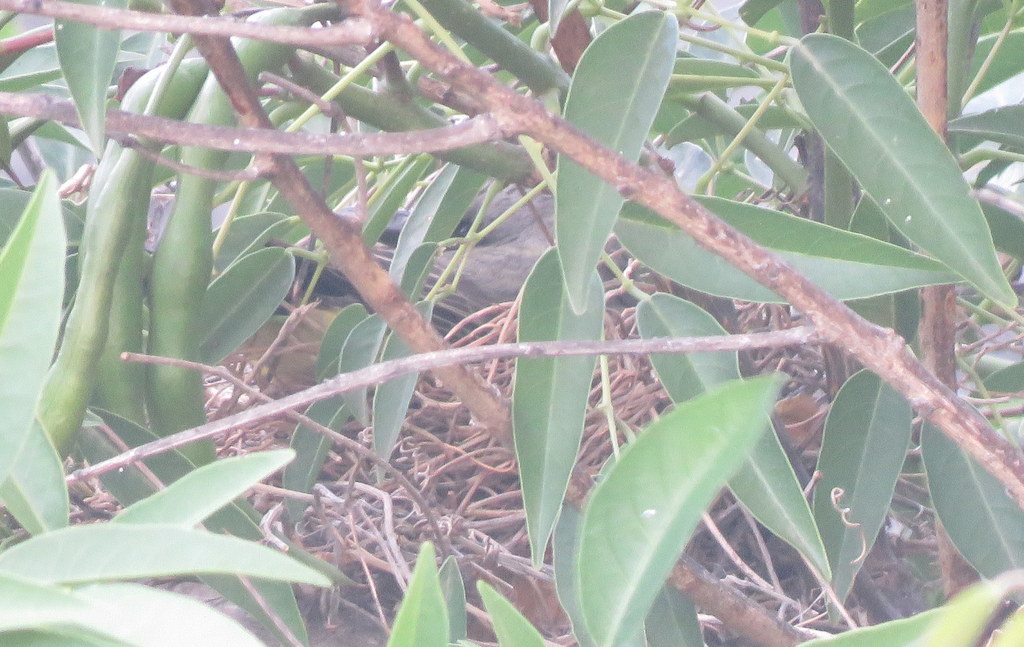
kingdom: Animalia
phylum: Chordata
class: Aves
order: Passeriformes
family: Tyrannidae
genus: Tyrannus
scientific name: Tyrannus melancholicus
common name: Tropical kingbird
